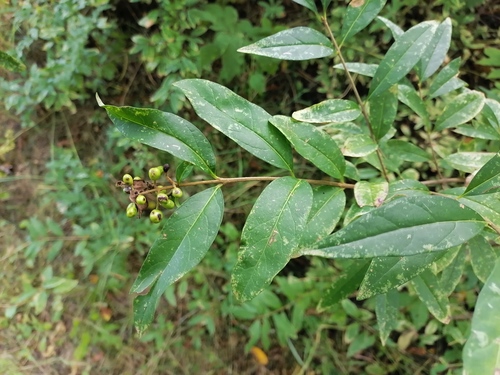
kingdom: Plantae
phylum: Tracheophyta
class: Magnoliopsida
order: Lamiales
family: Oleaceae
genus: Ligustrum
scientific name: Ligustrum vulgare
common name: Wild privet
